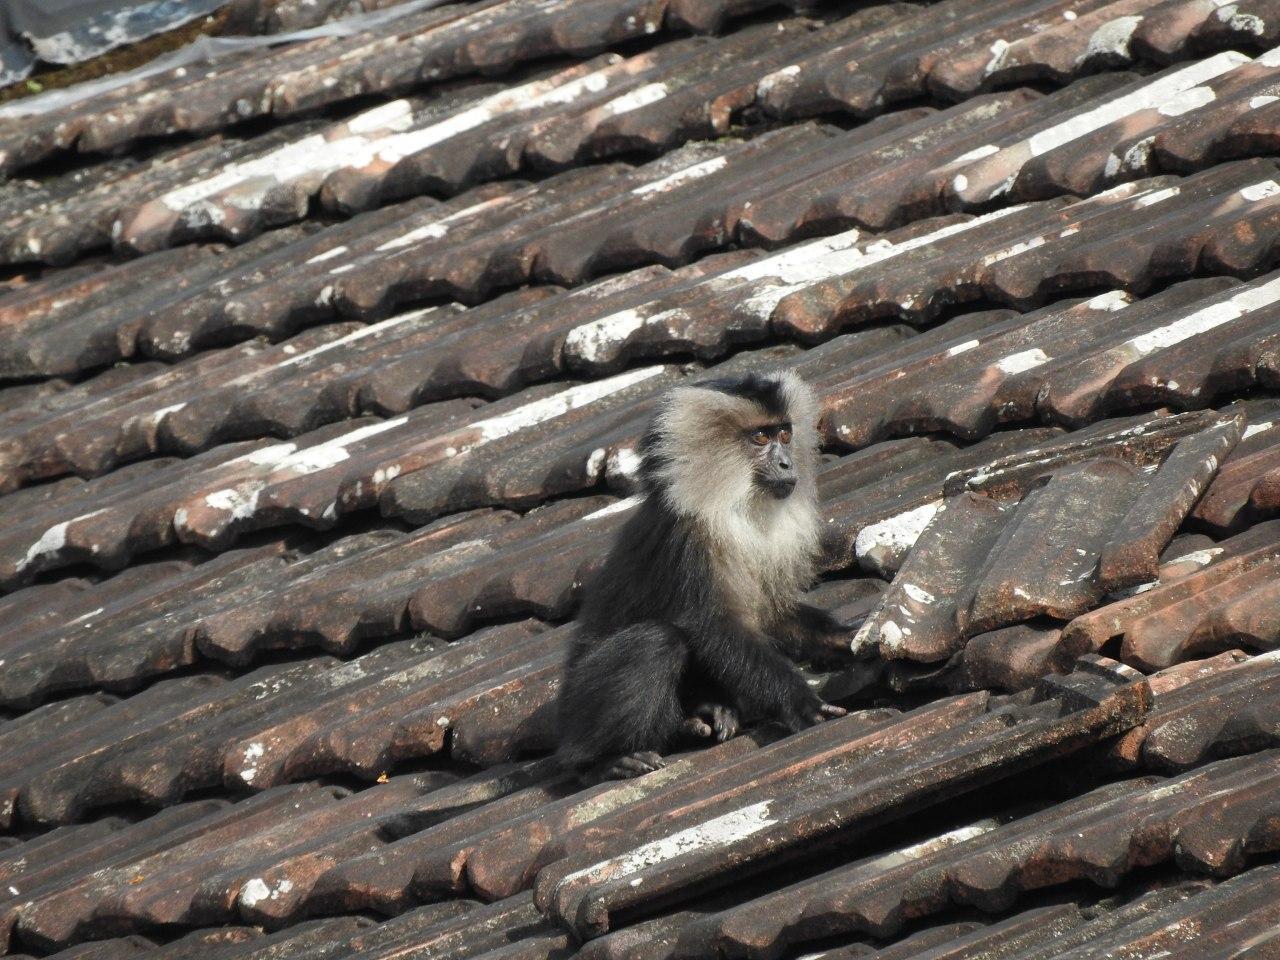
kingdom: Animalia
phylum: Chordata
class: Mammalia
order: Primates
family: Cercopithecidae
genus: Macaca
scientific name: Macaca silenus
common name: Lion-tailed macaque
